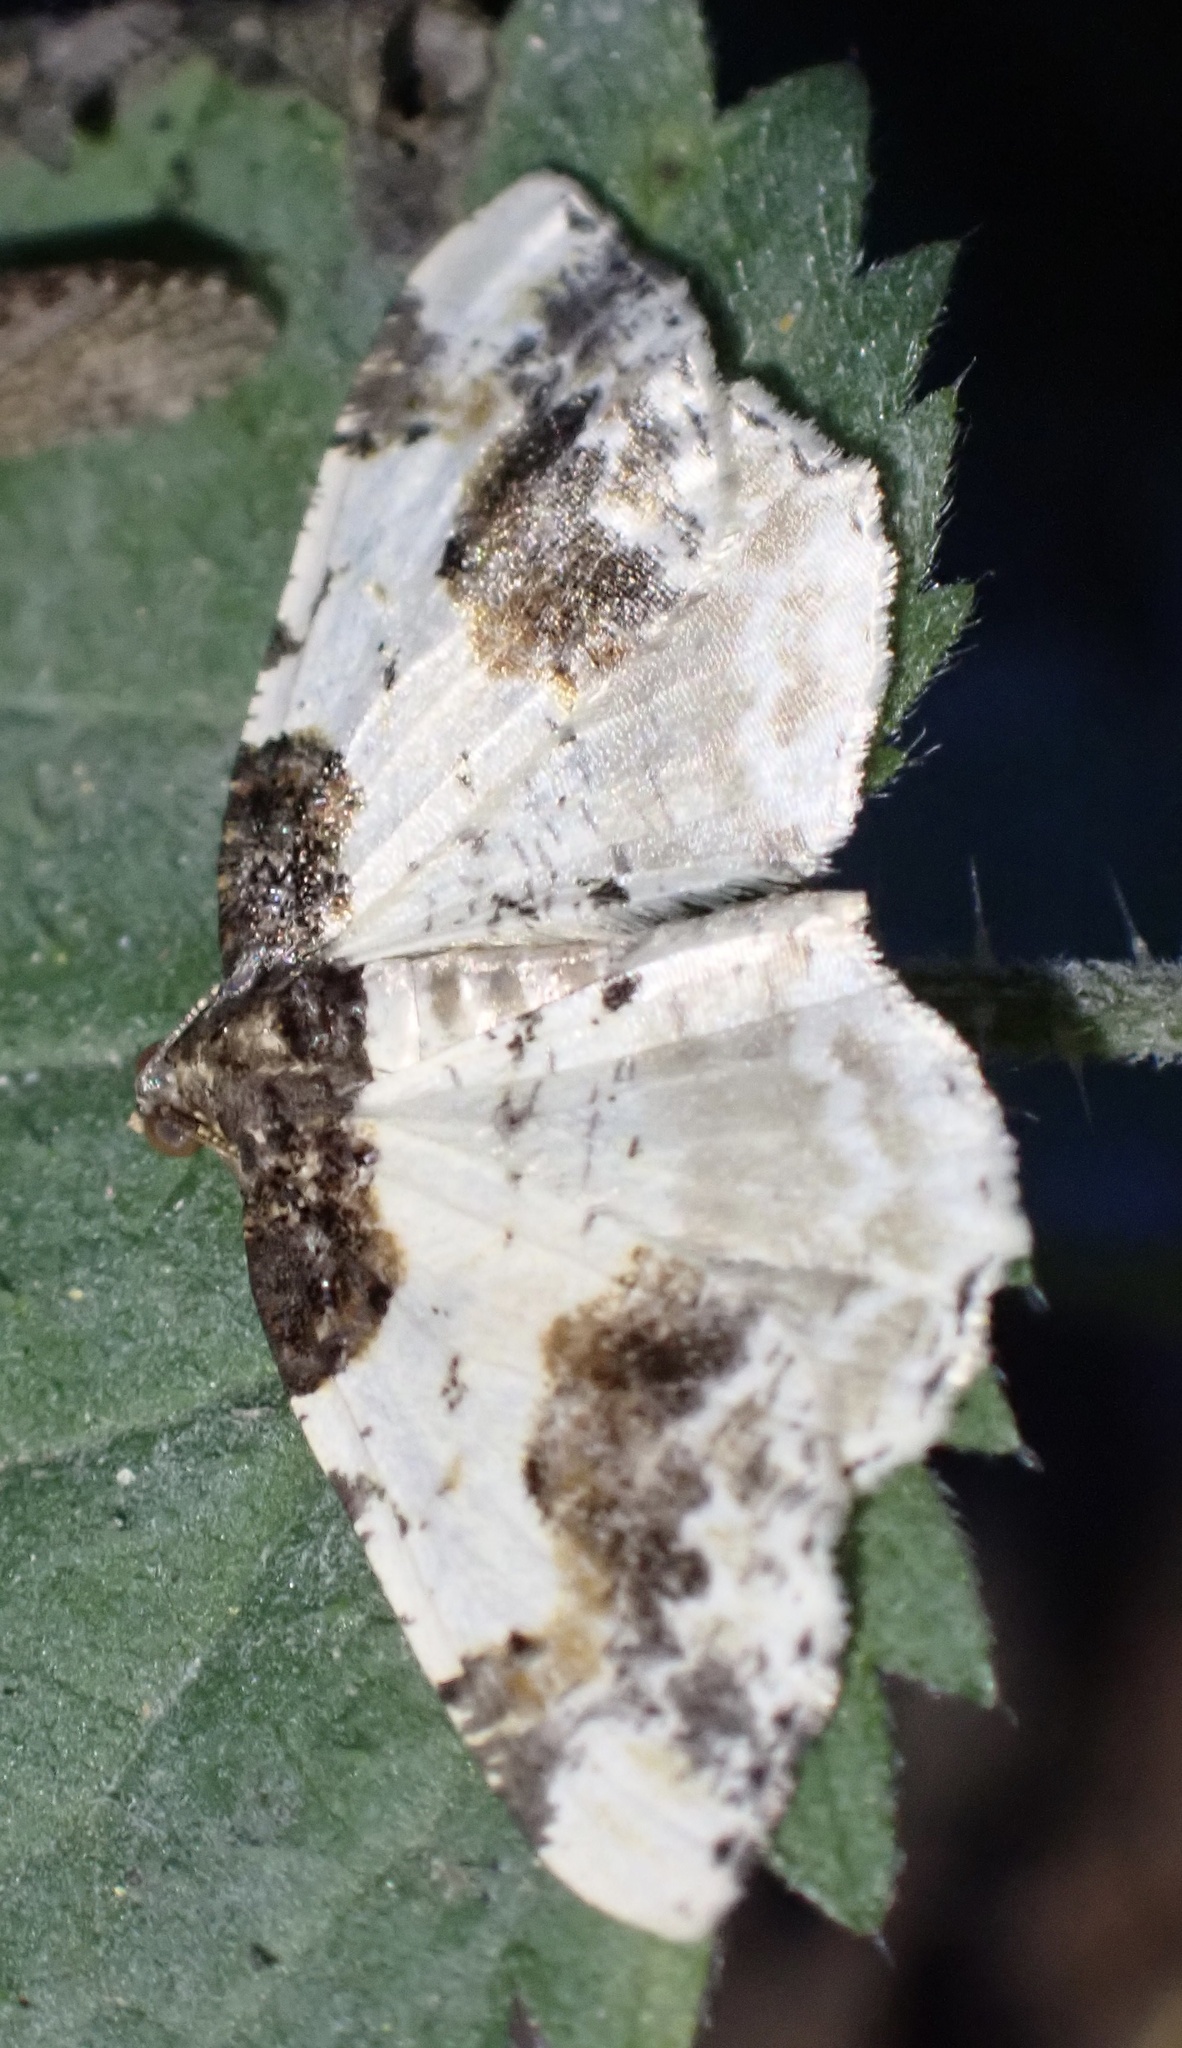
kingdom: Animalia
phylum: Arthropoda
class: Insecta
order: Lepidoptera
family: Geometridae
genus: Ligdia
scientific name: Ligdia adustata
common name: Scorched carpet
